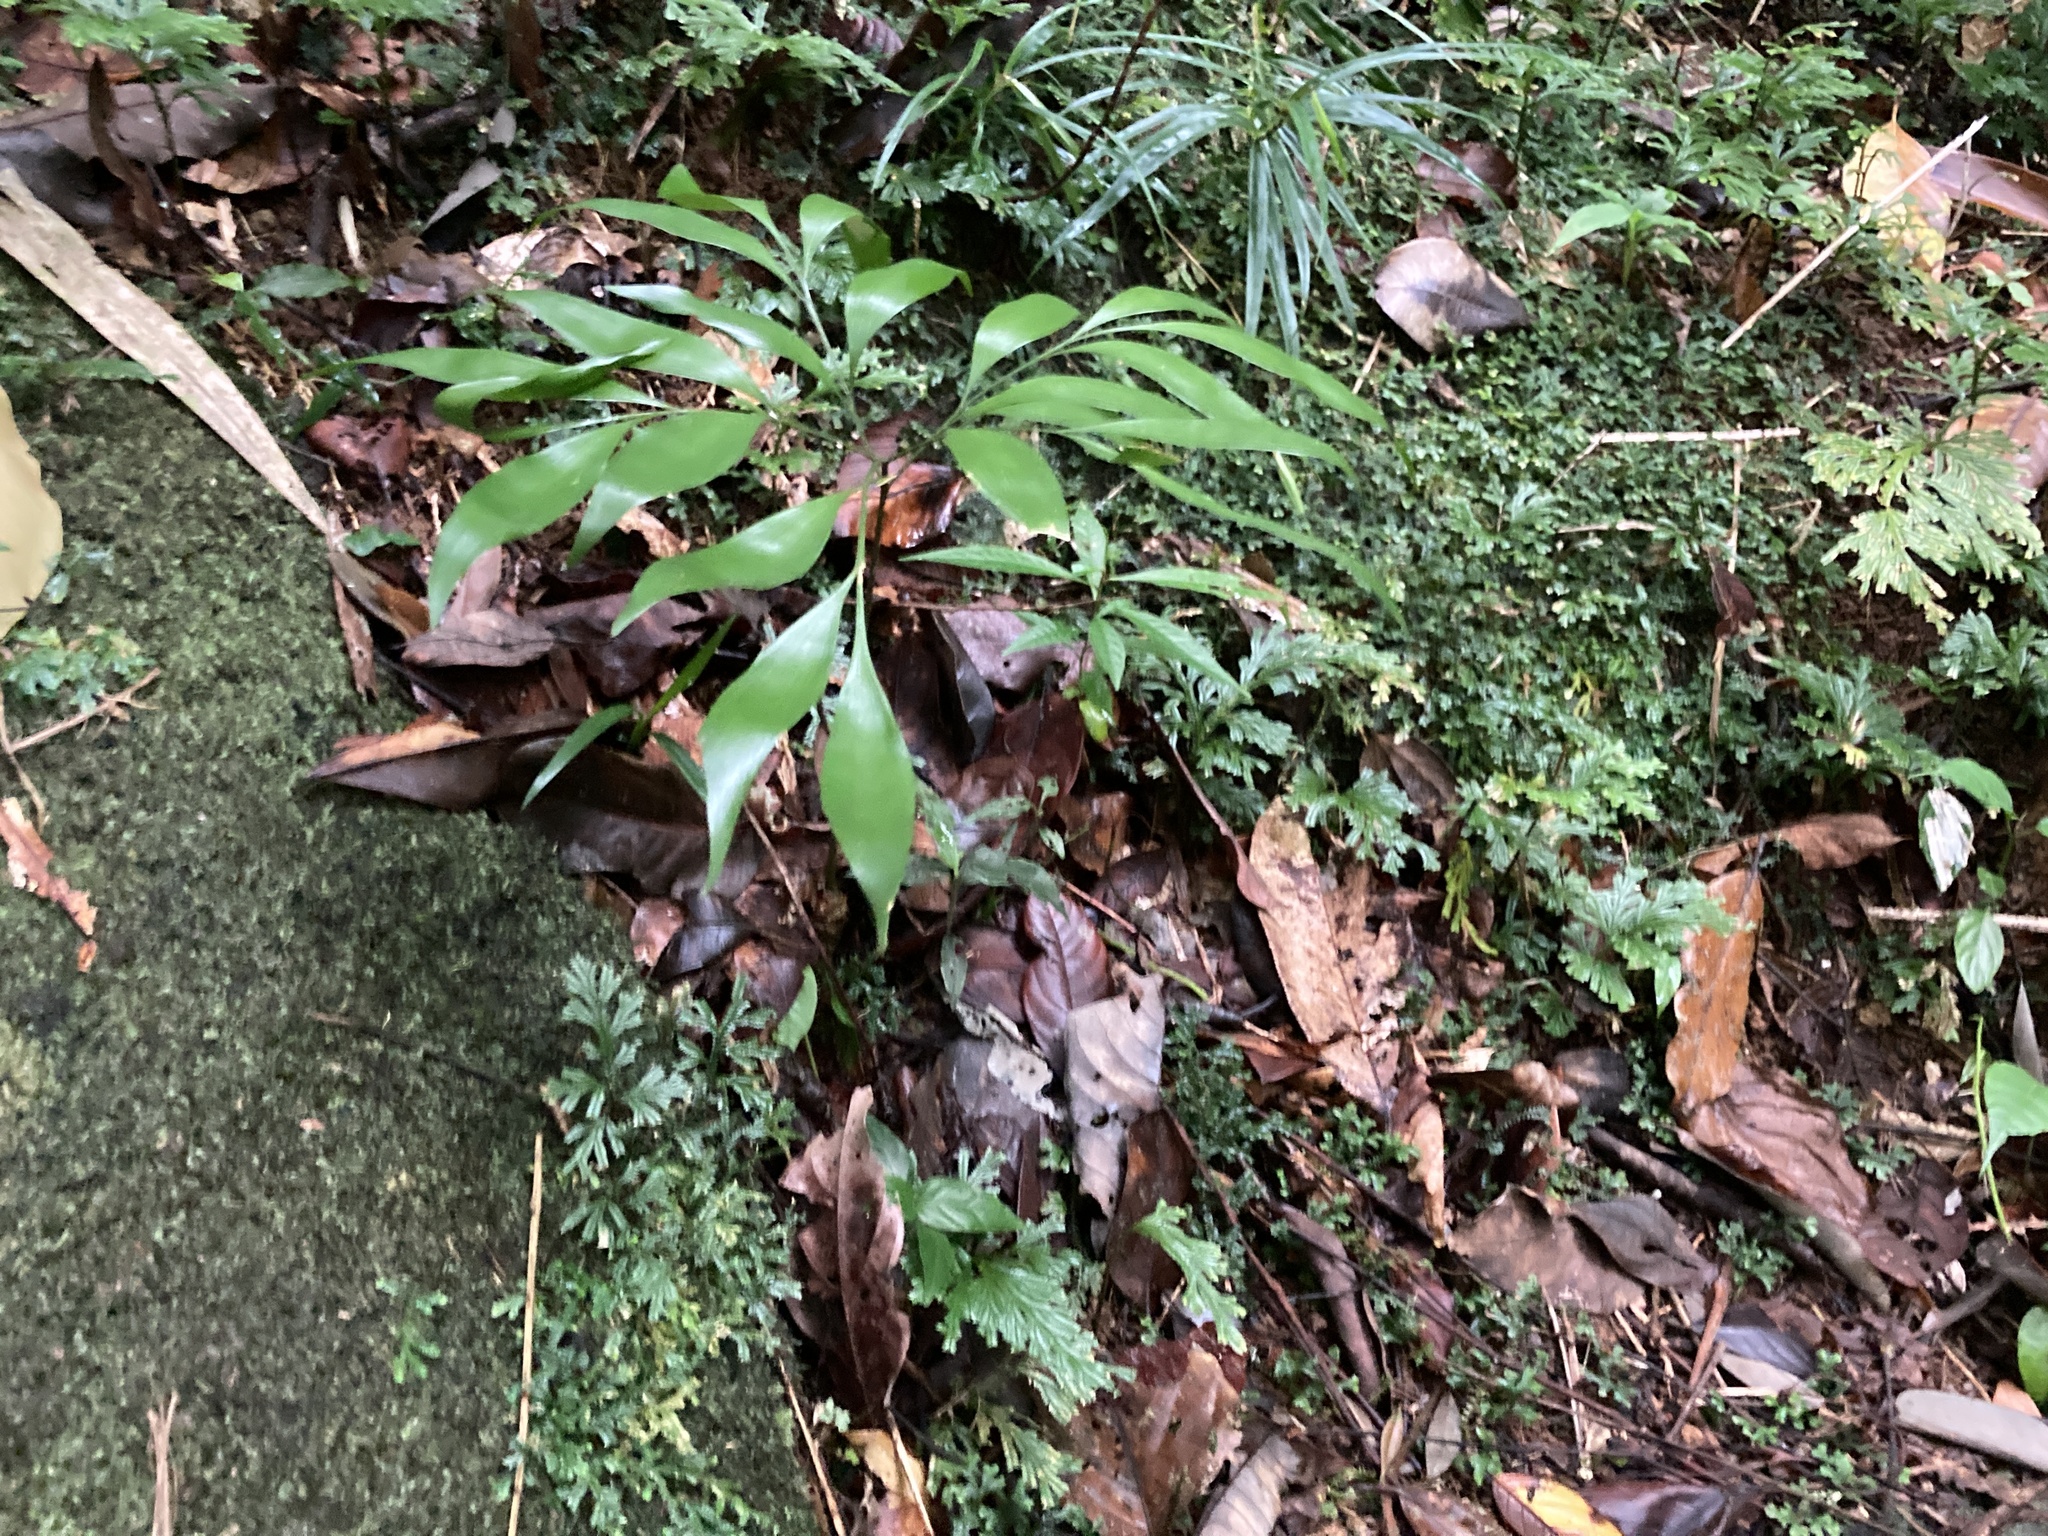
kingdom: Plantae
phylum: Tracheophyta
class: Cycadopsida
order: Cycadales
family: Zamiaceae
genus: Bowenia
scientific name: Bowenia spectabilis
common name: Zamia-fern
